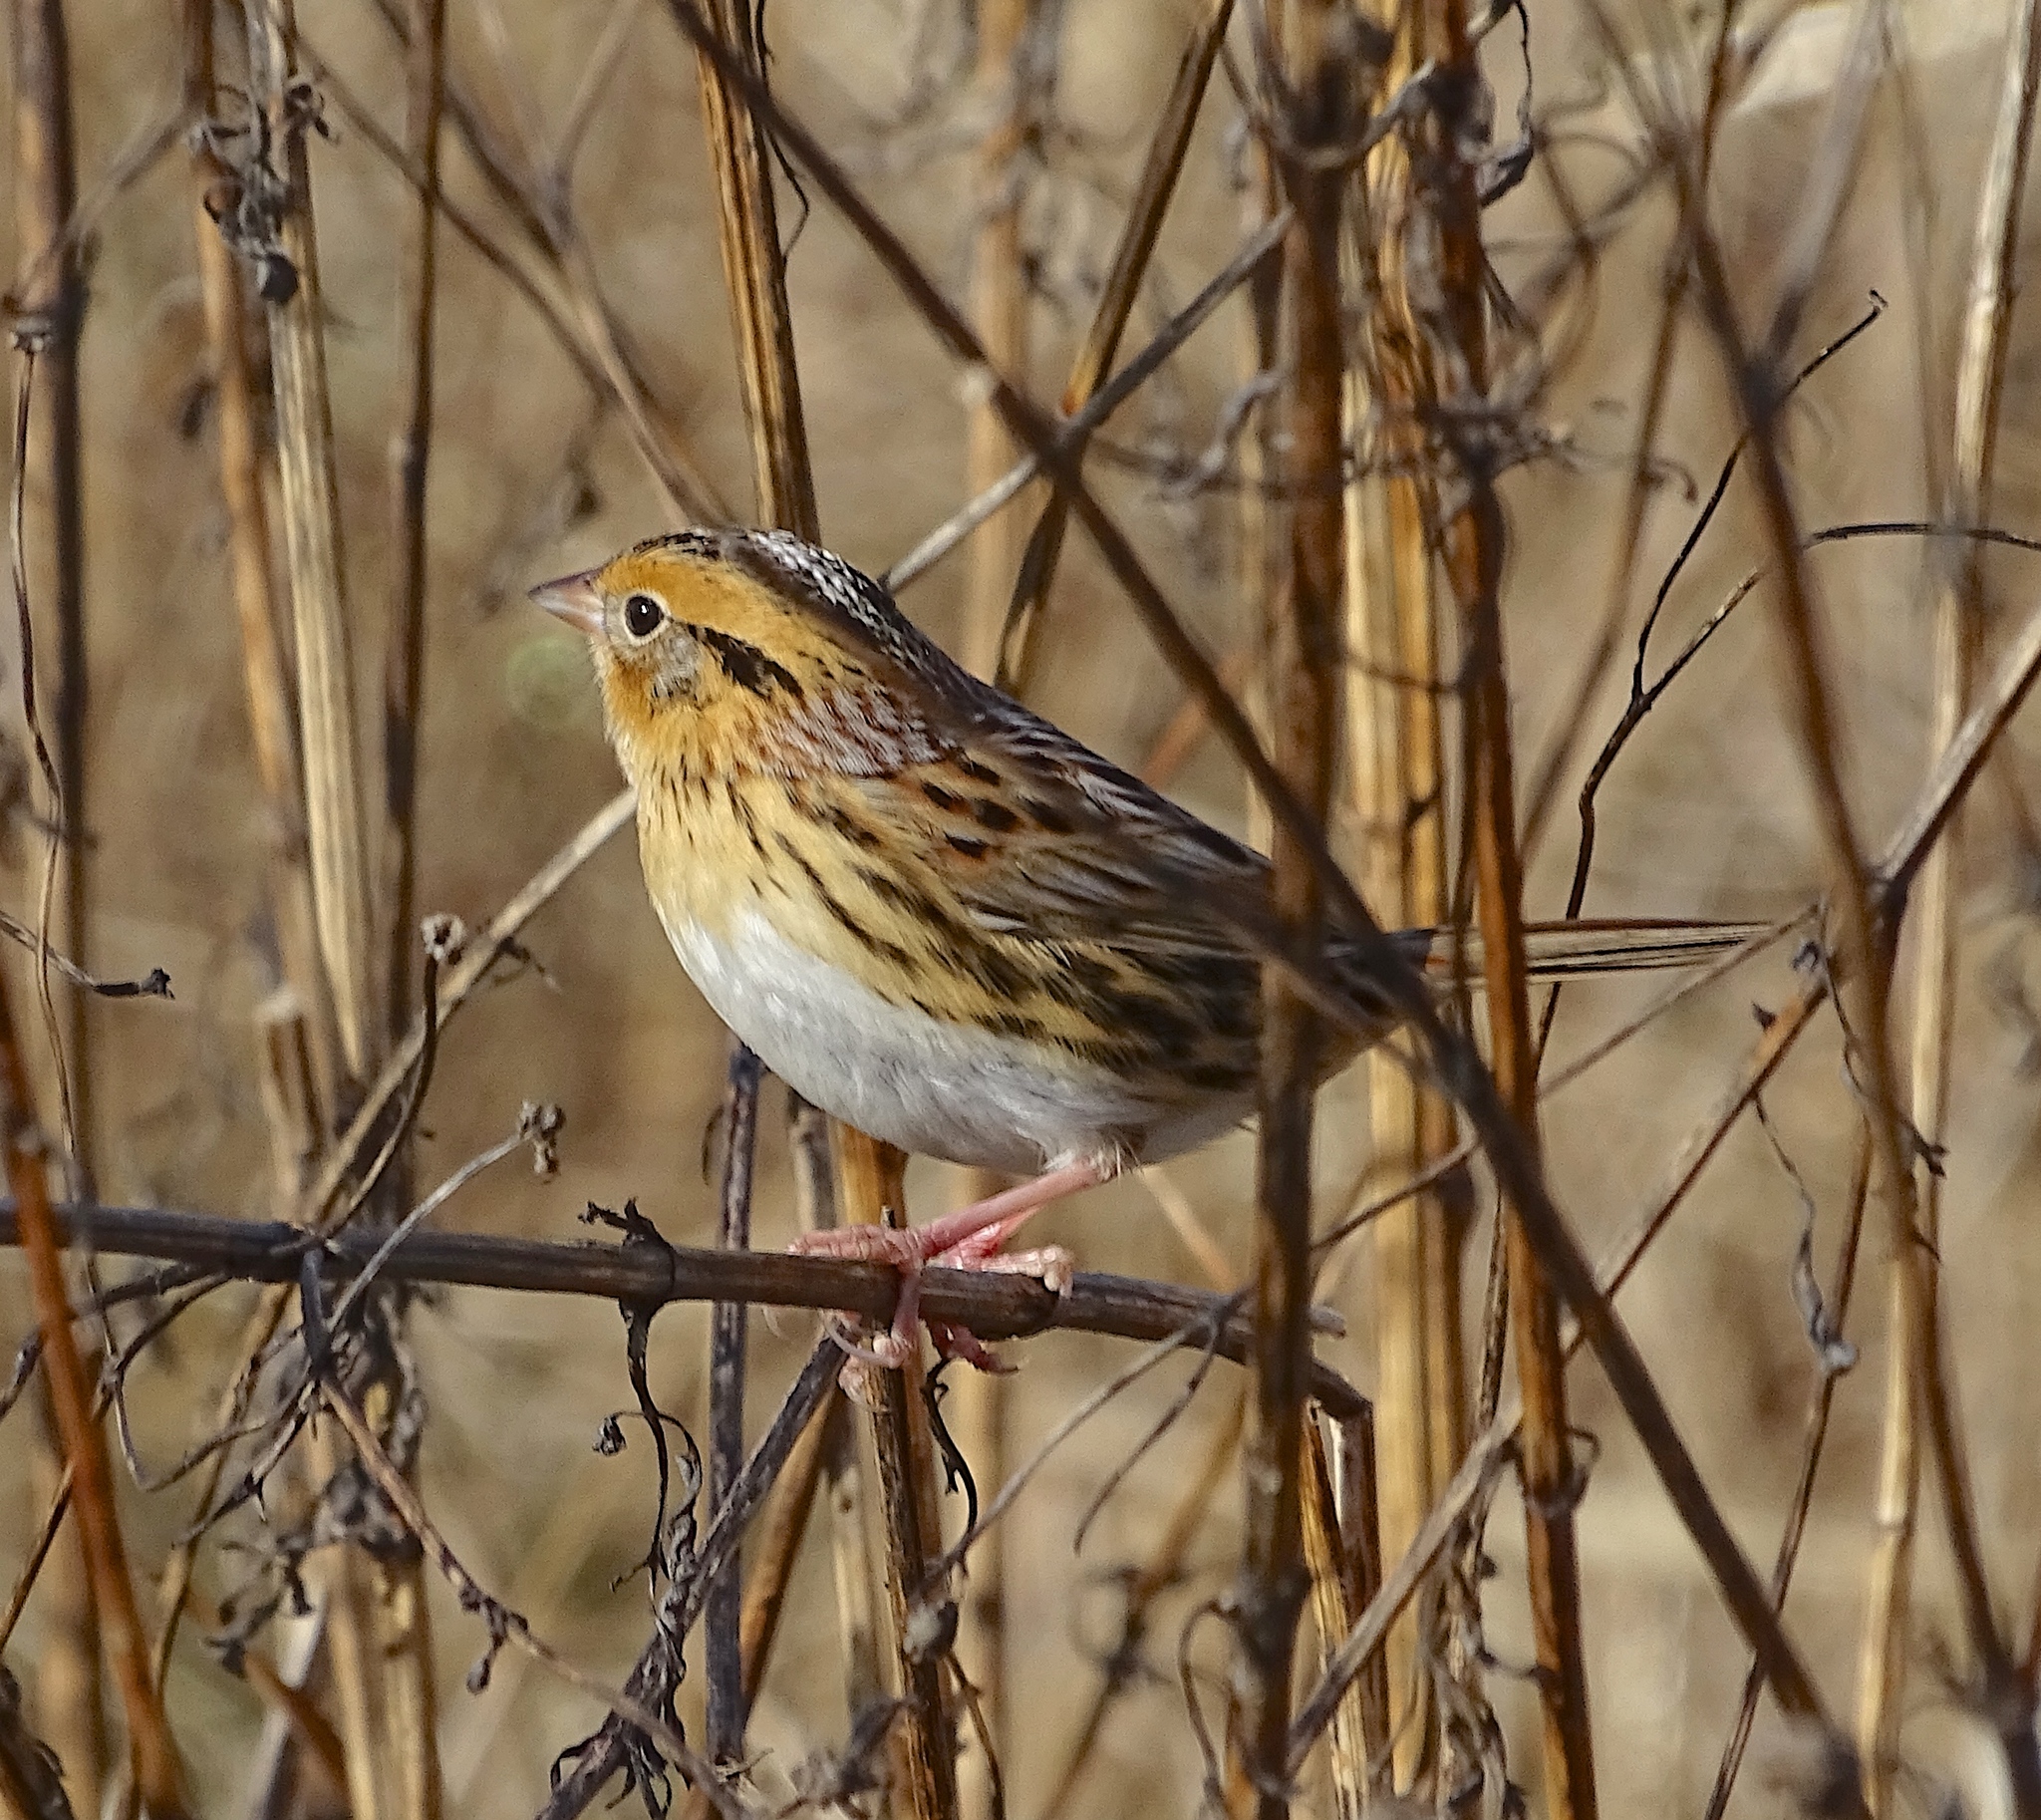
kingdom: Animalia
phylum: Chordata
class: Aves
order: Passeriformes
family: Passerellidae
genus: Ammospiza
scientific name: Ammospiza leconteii
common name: Le conte's sparrow
